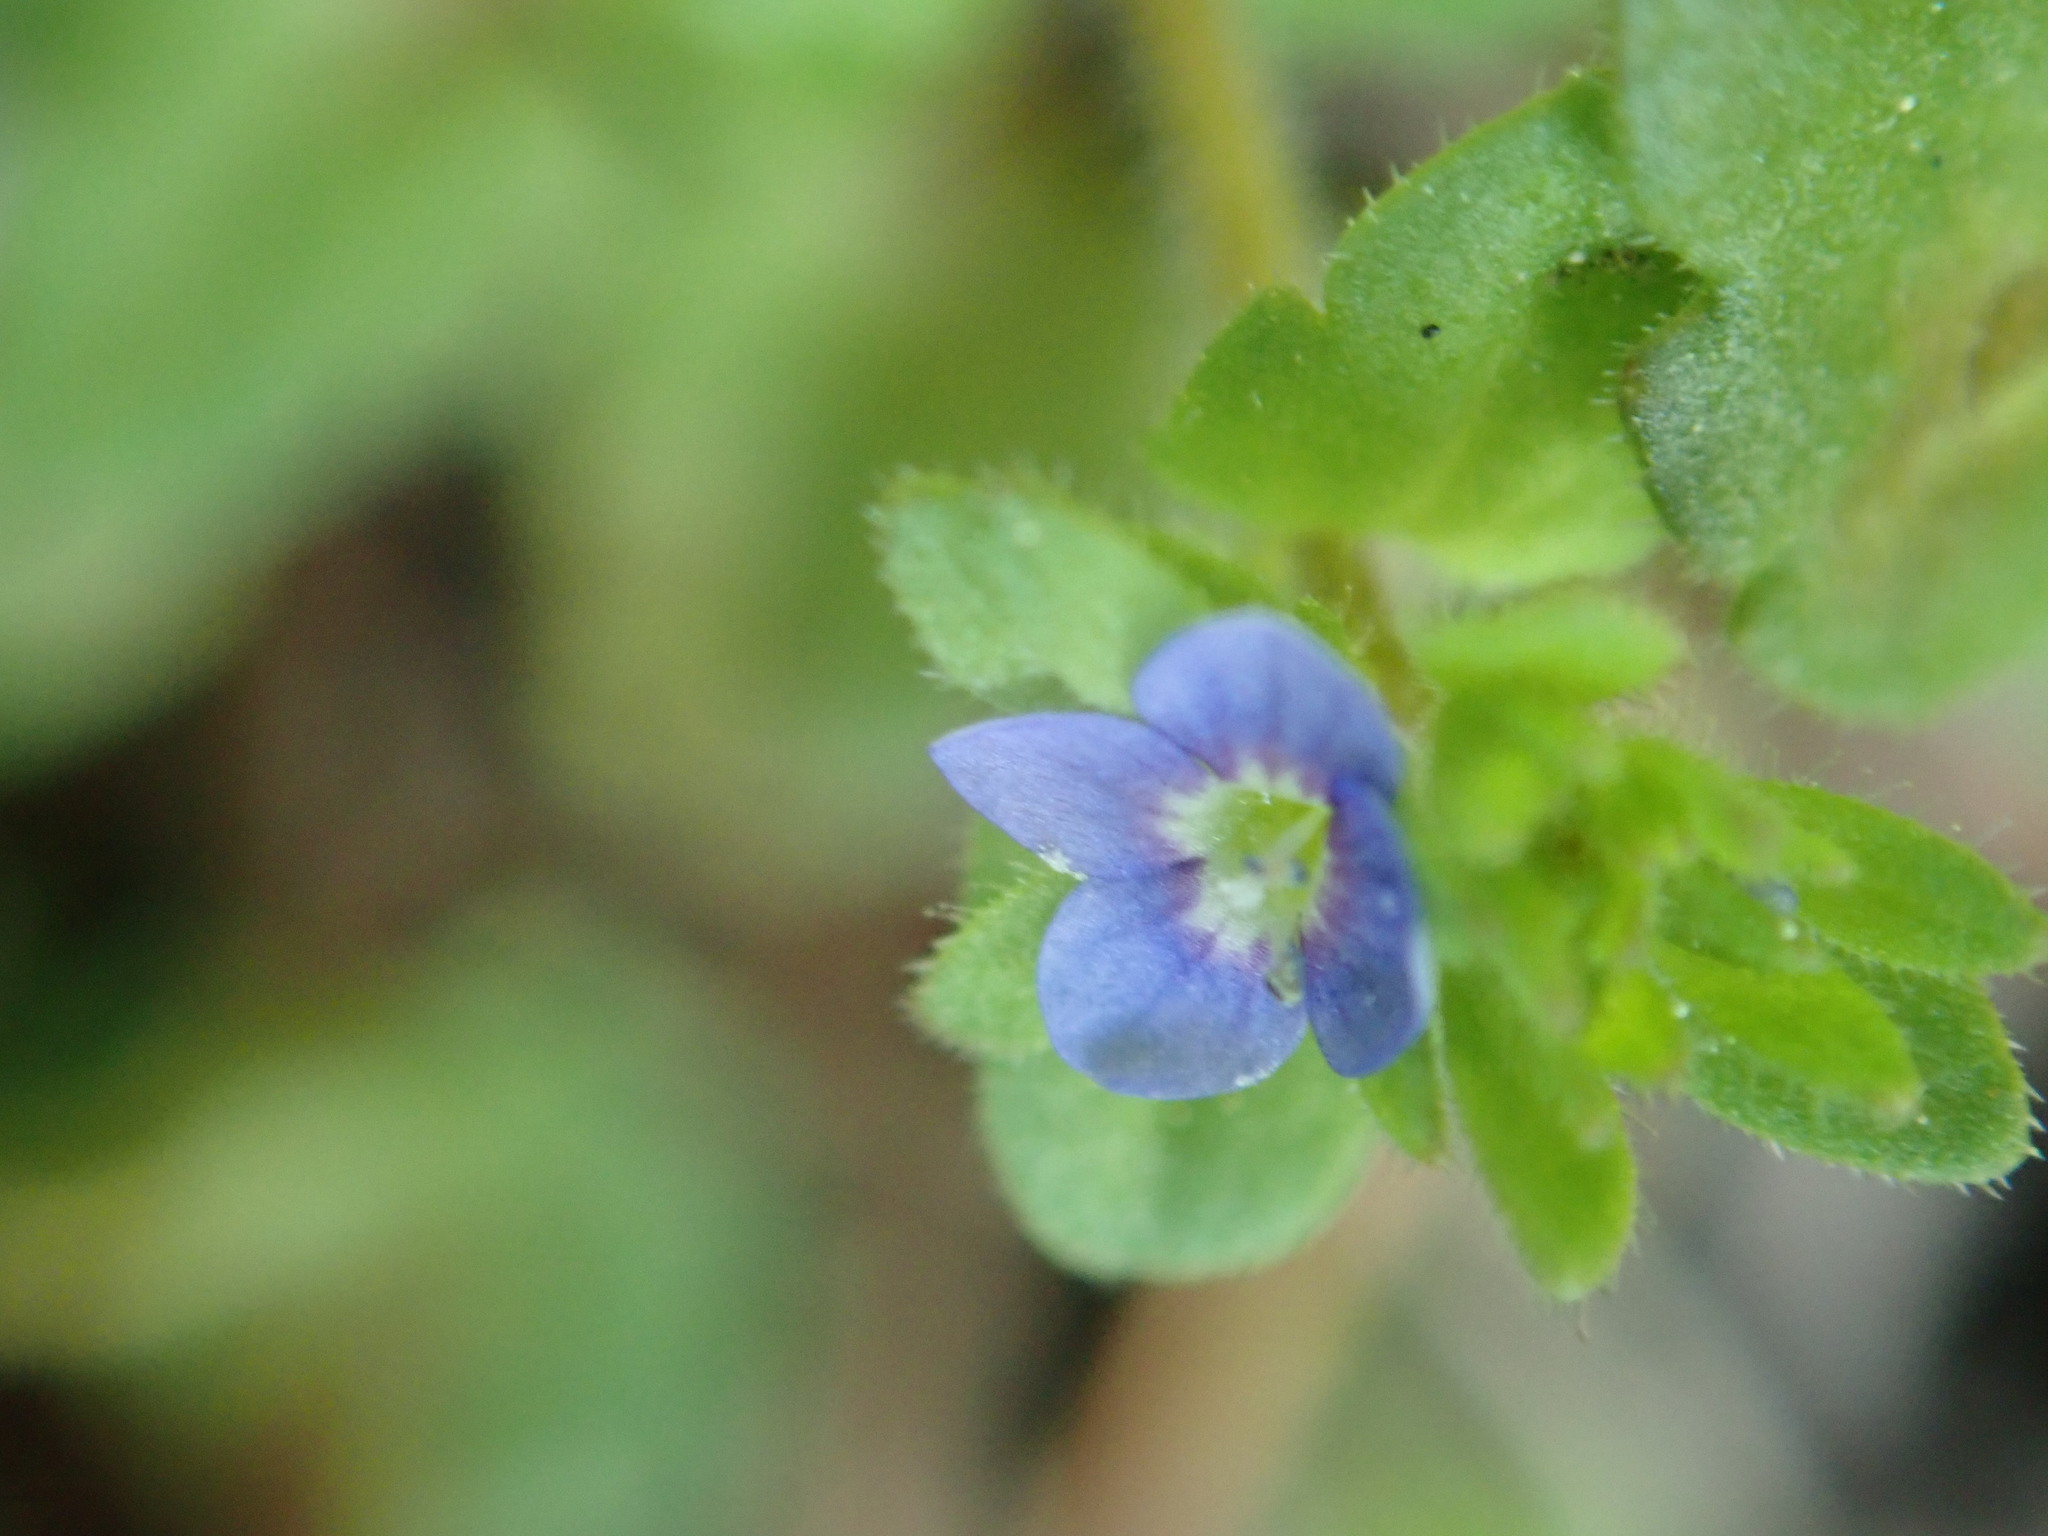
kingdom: Plantae
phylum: Tracheophyta
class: Magnoliopsida
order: Lamiales
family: Plantaginaceae
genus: Veronica
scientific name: Veronica arvensis
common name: Corn speedwell
